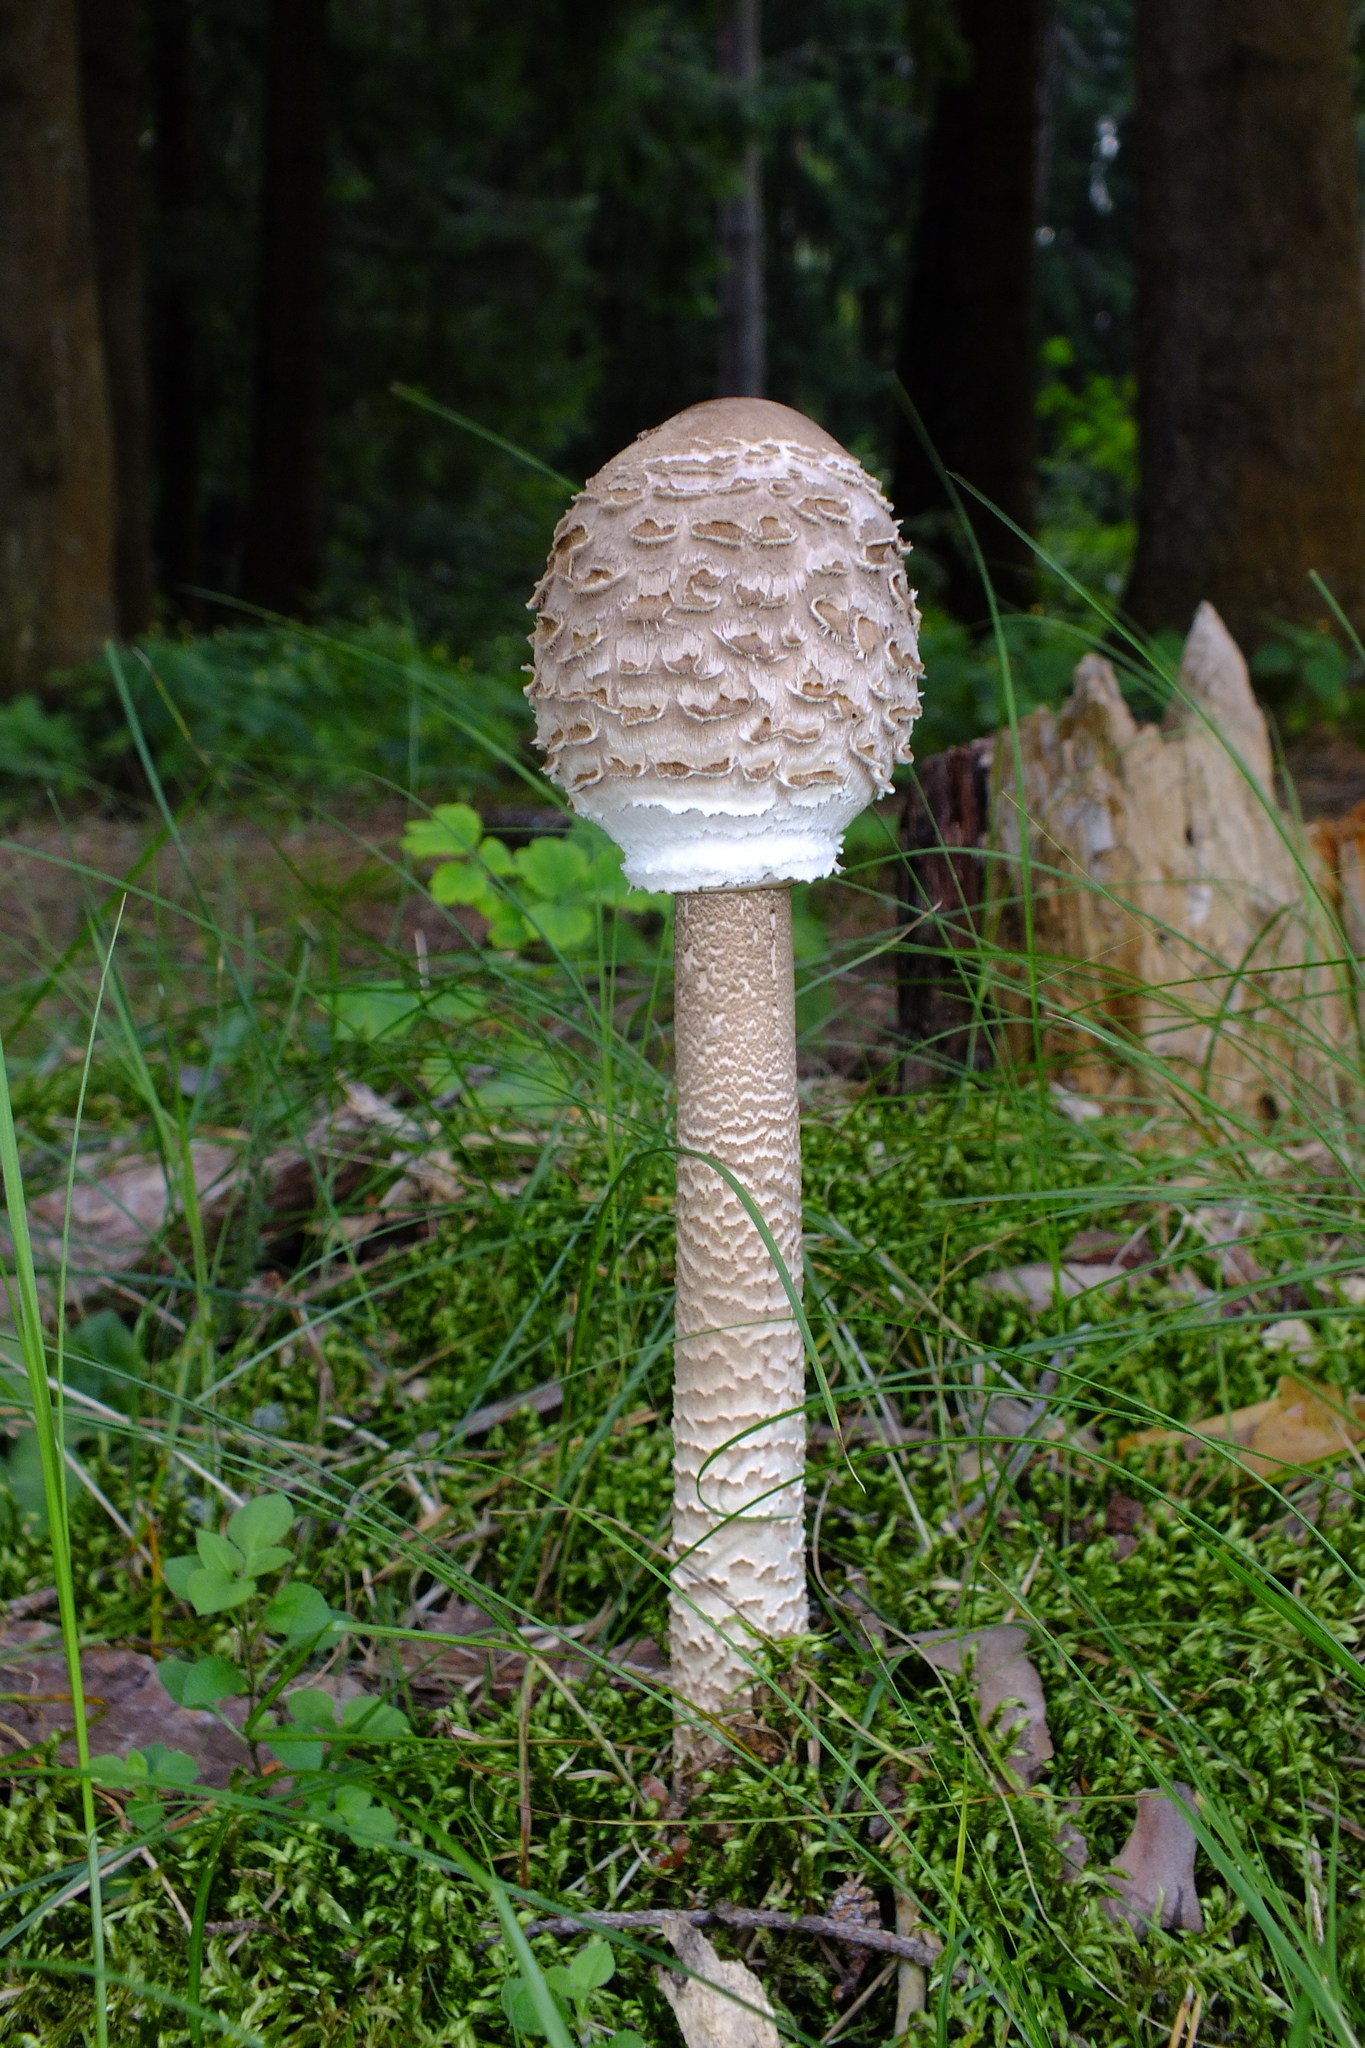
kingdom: Fungi
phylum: Basidiomycota
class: Agaricomycetes
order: Agaricales
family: Agaricaceae
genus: Macrolepiota
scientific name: Macrolepiota procera
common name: Parasol
